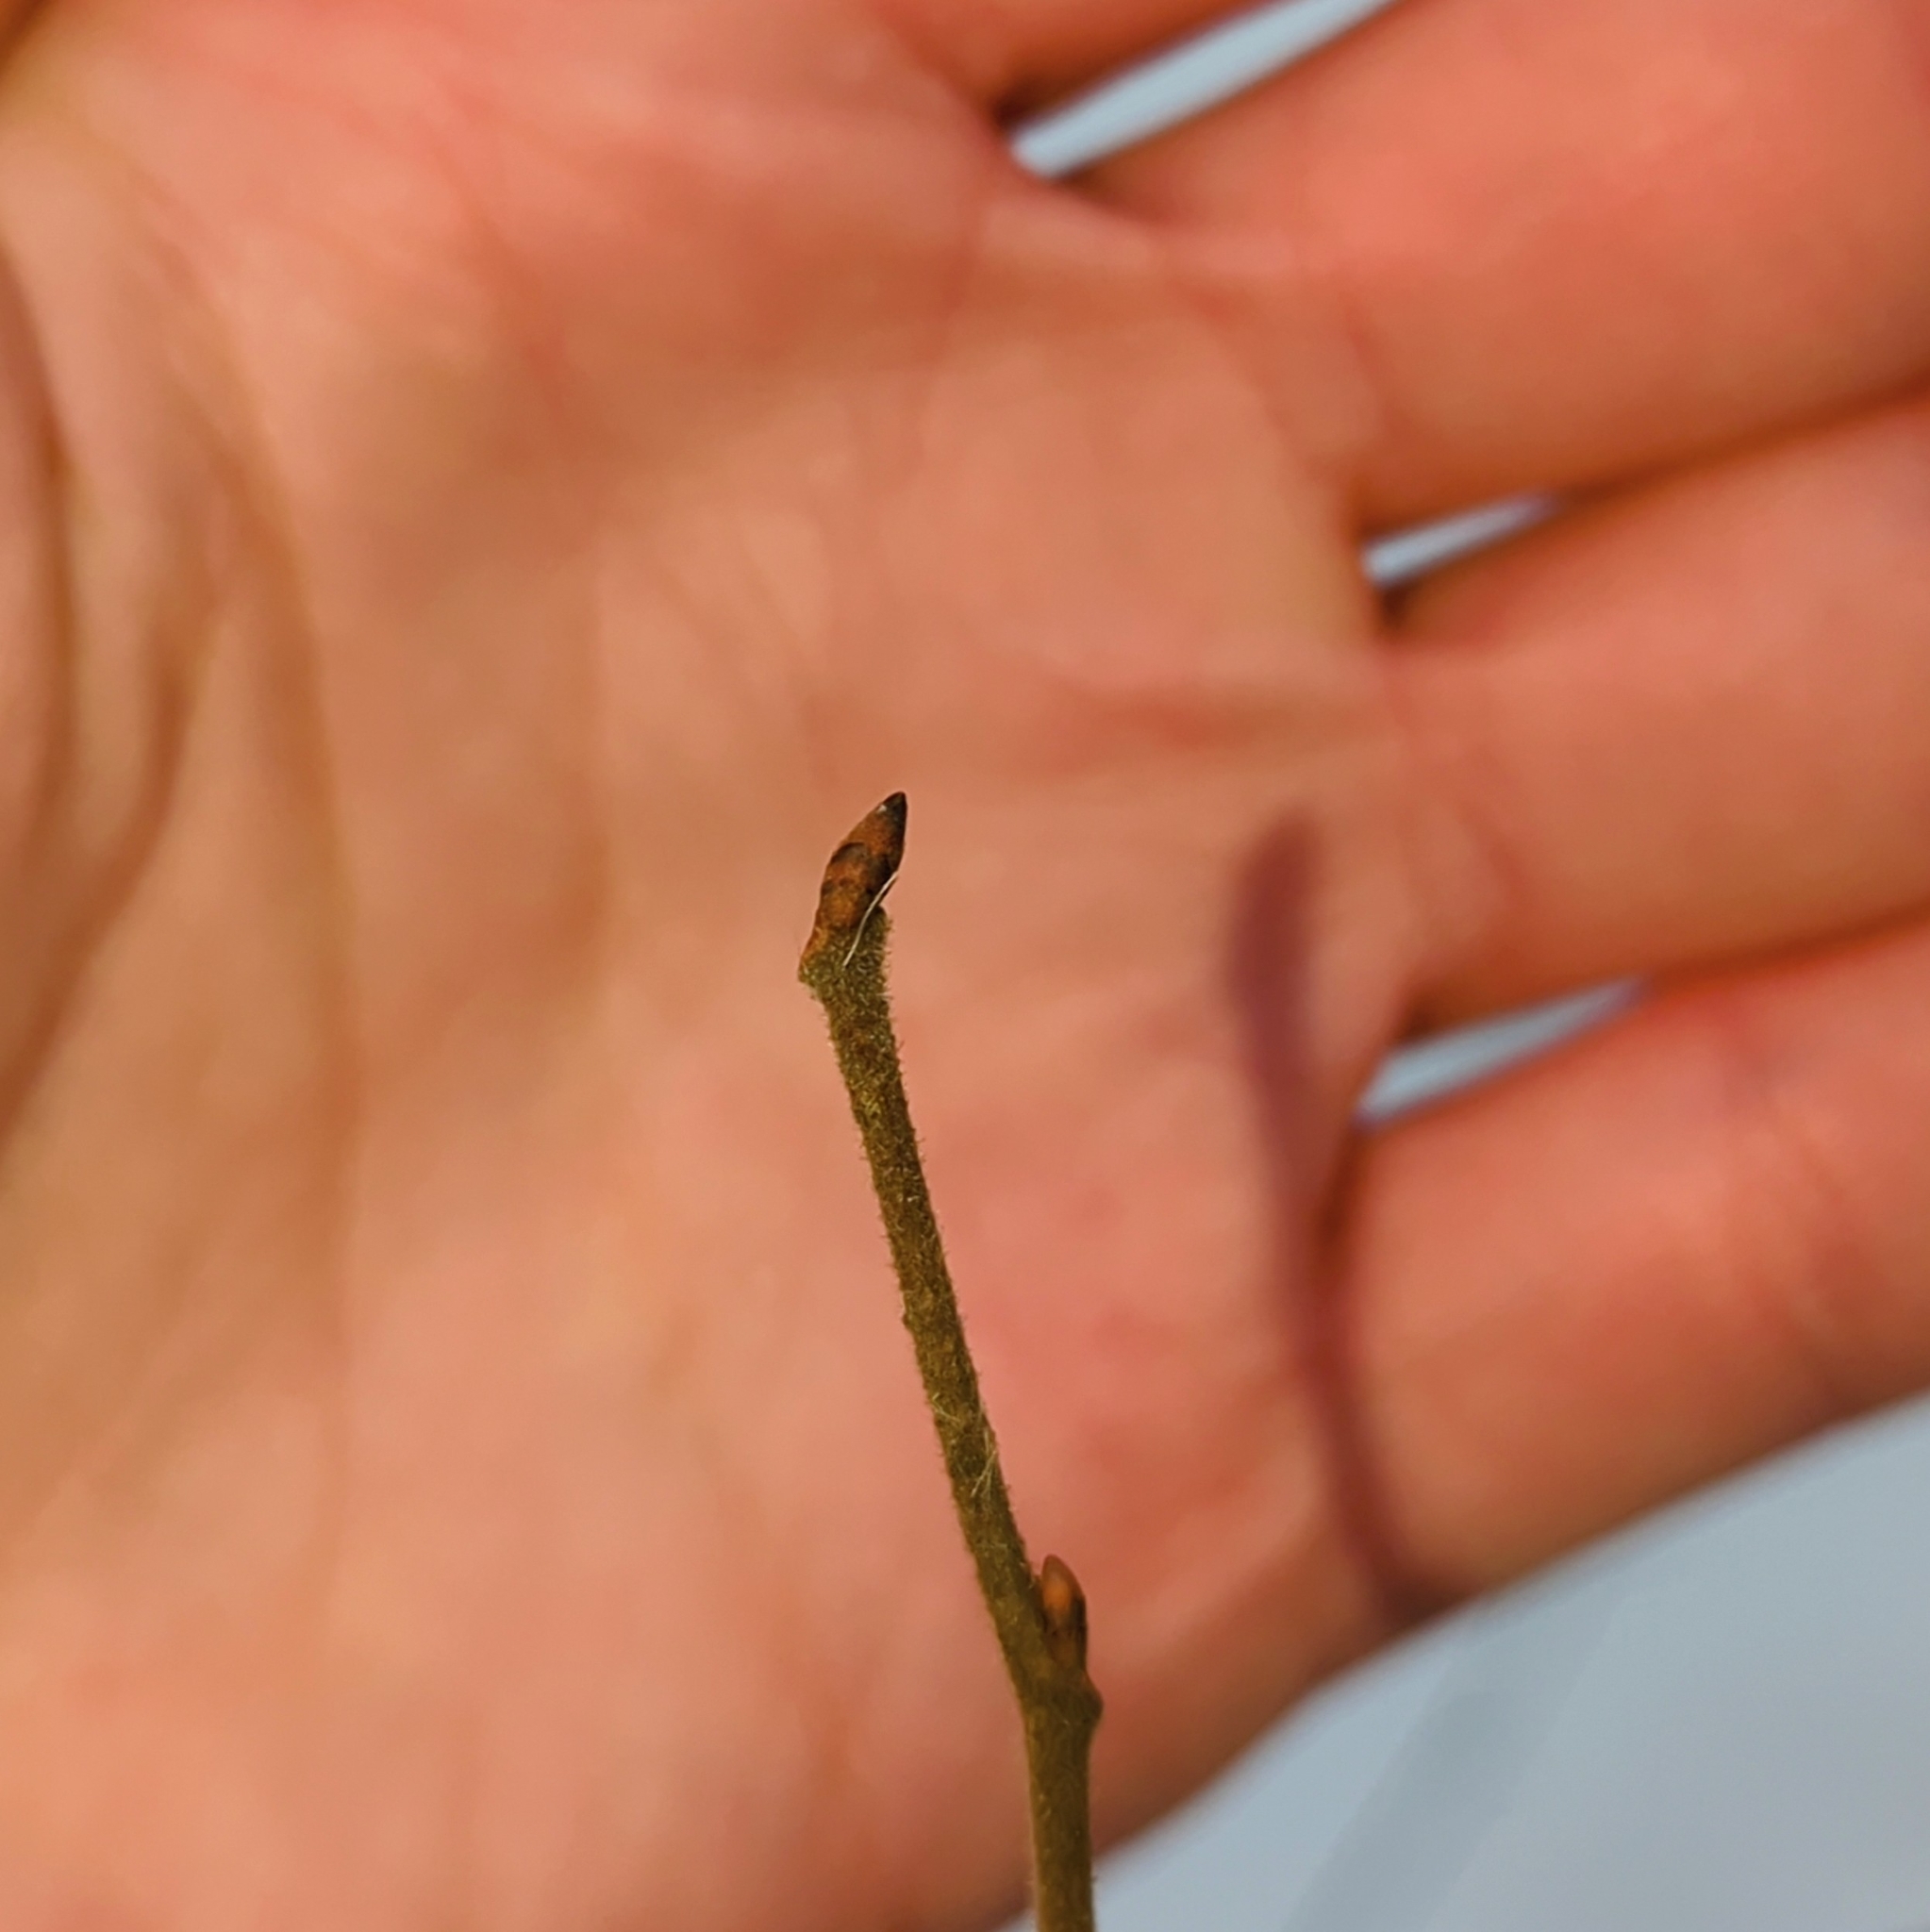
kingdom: Plantae
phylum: Tracheophyta
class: Magnoliopsida
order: Rosales
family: Ulmaceae
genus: Ulmus
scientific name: Ulmus americana
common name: American elm
